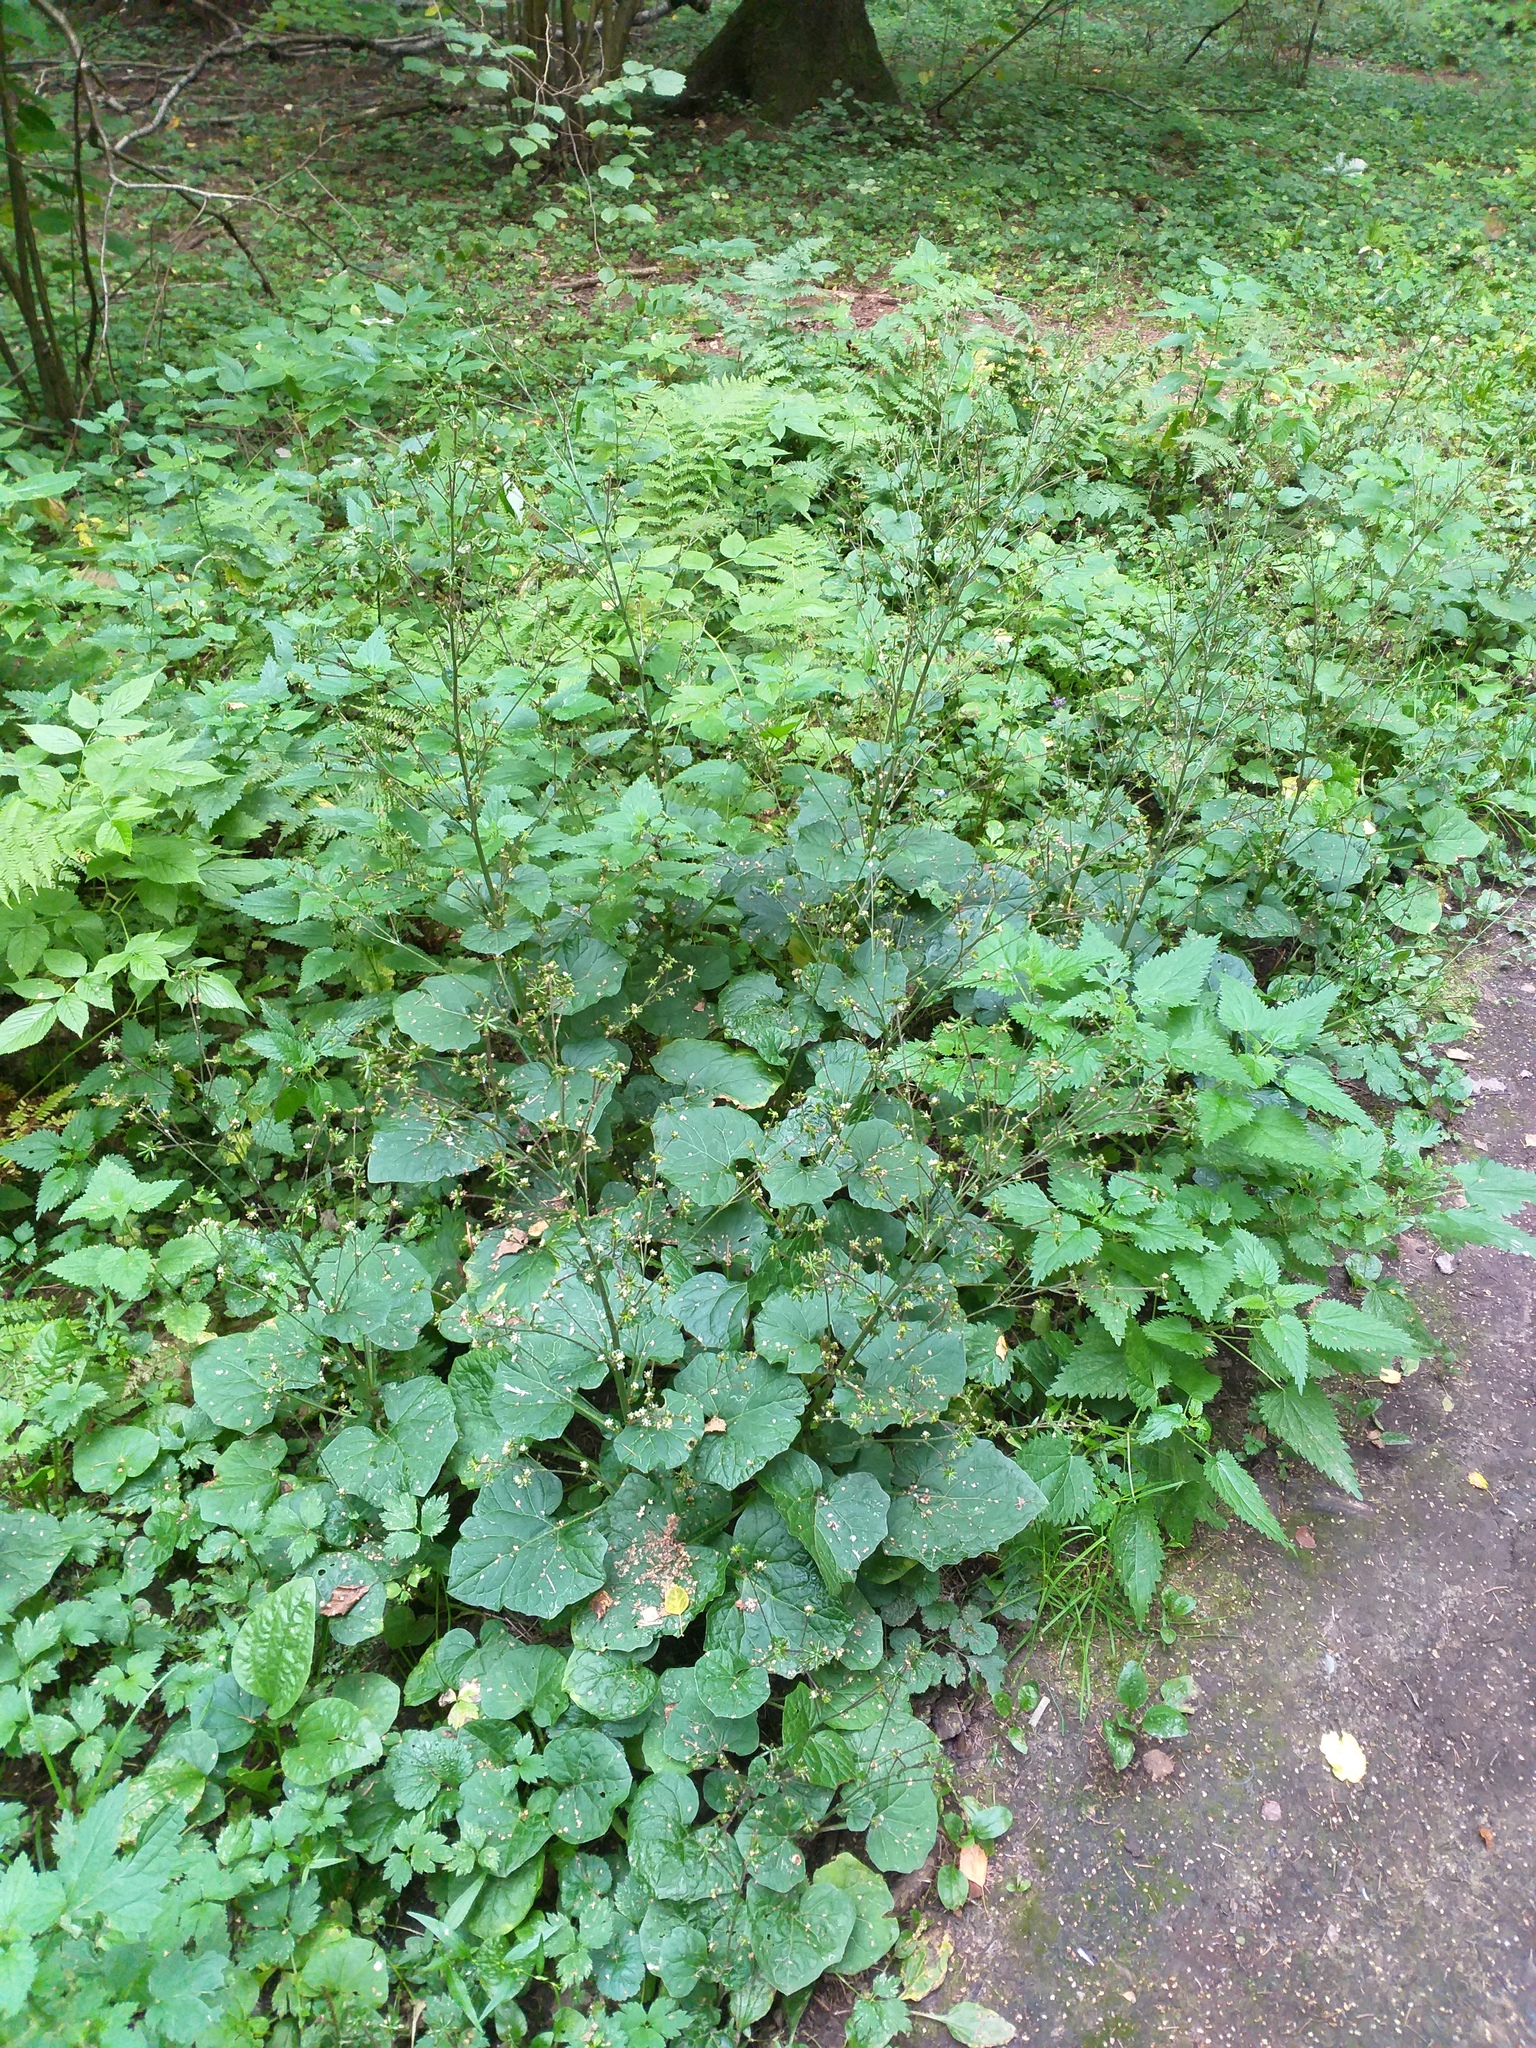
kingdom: Plantae
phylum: Tracheophyta
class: Magnoliopsida
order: Asterales
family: Asteraceae
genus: Adenocaulon
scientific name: Adenocaulon himalaicum
